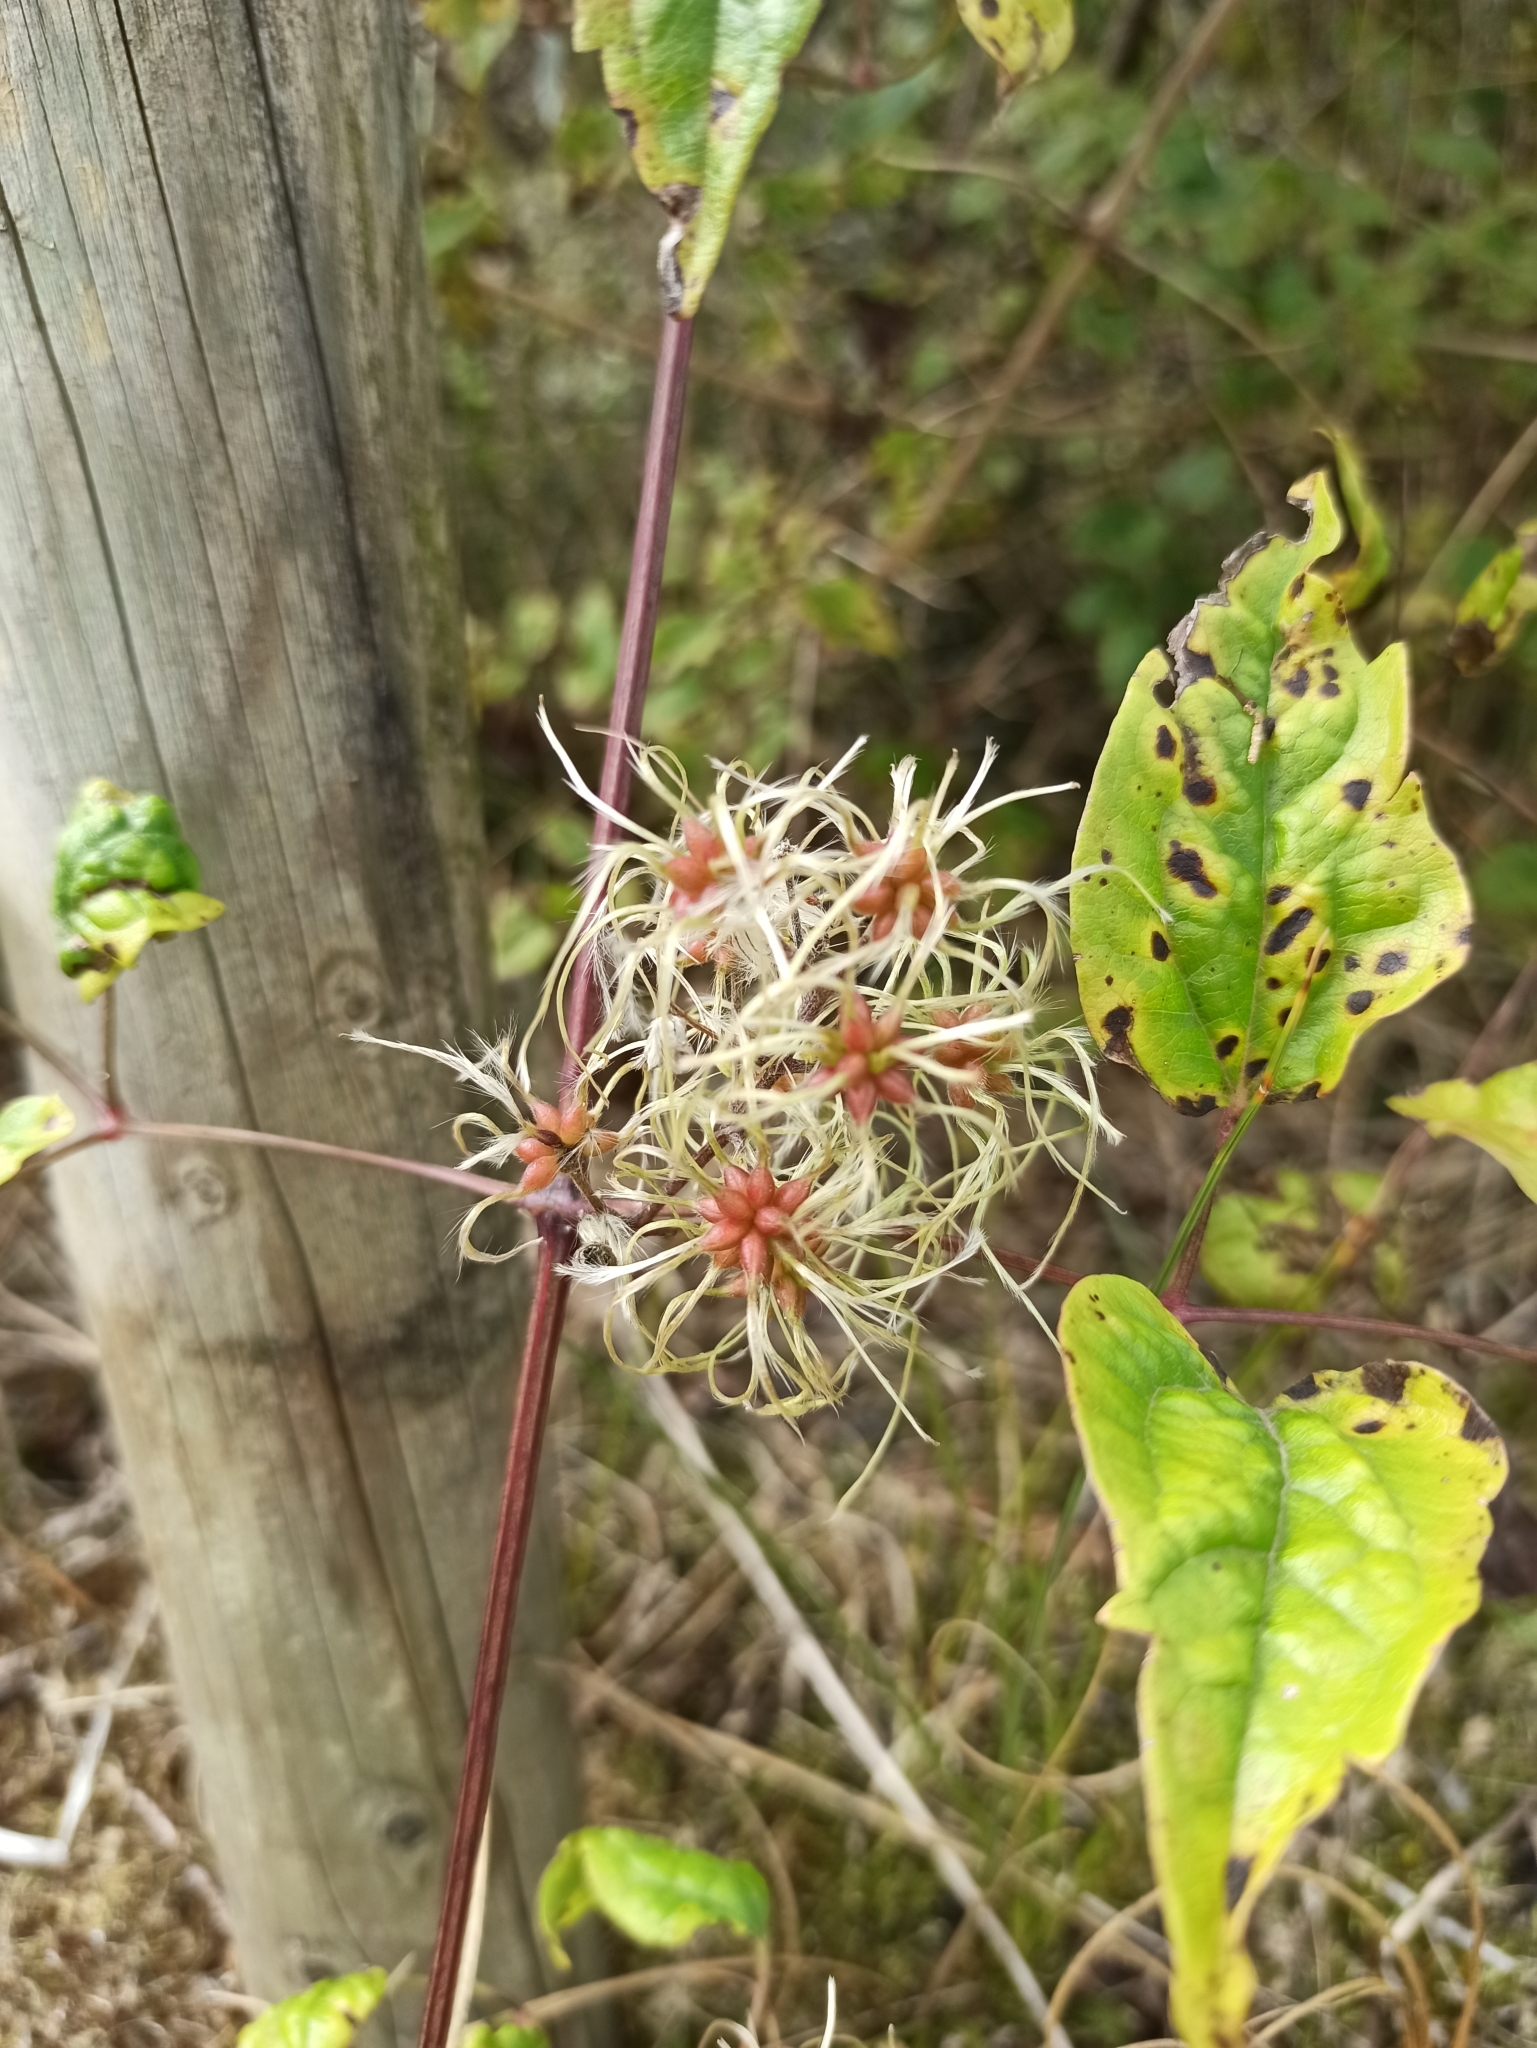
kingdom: Plantae
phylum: Tracheophyta
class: Magnoliopsida
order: Ranunculales
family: Ranunculaceae
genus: Clematis
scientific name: Clematis vitalba
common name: Evergreen clematis
